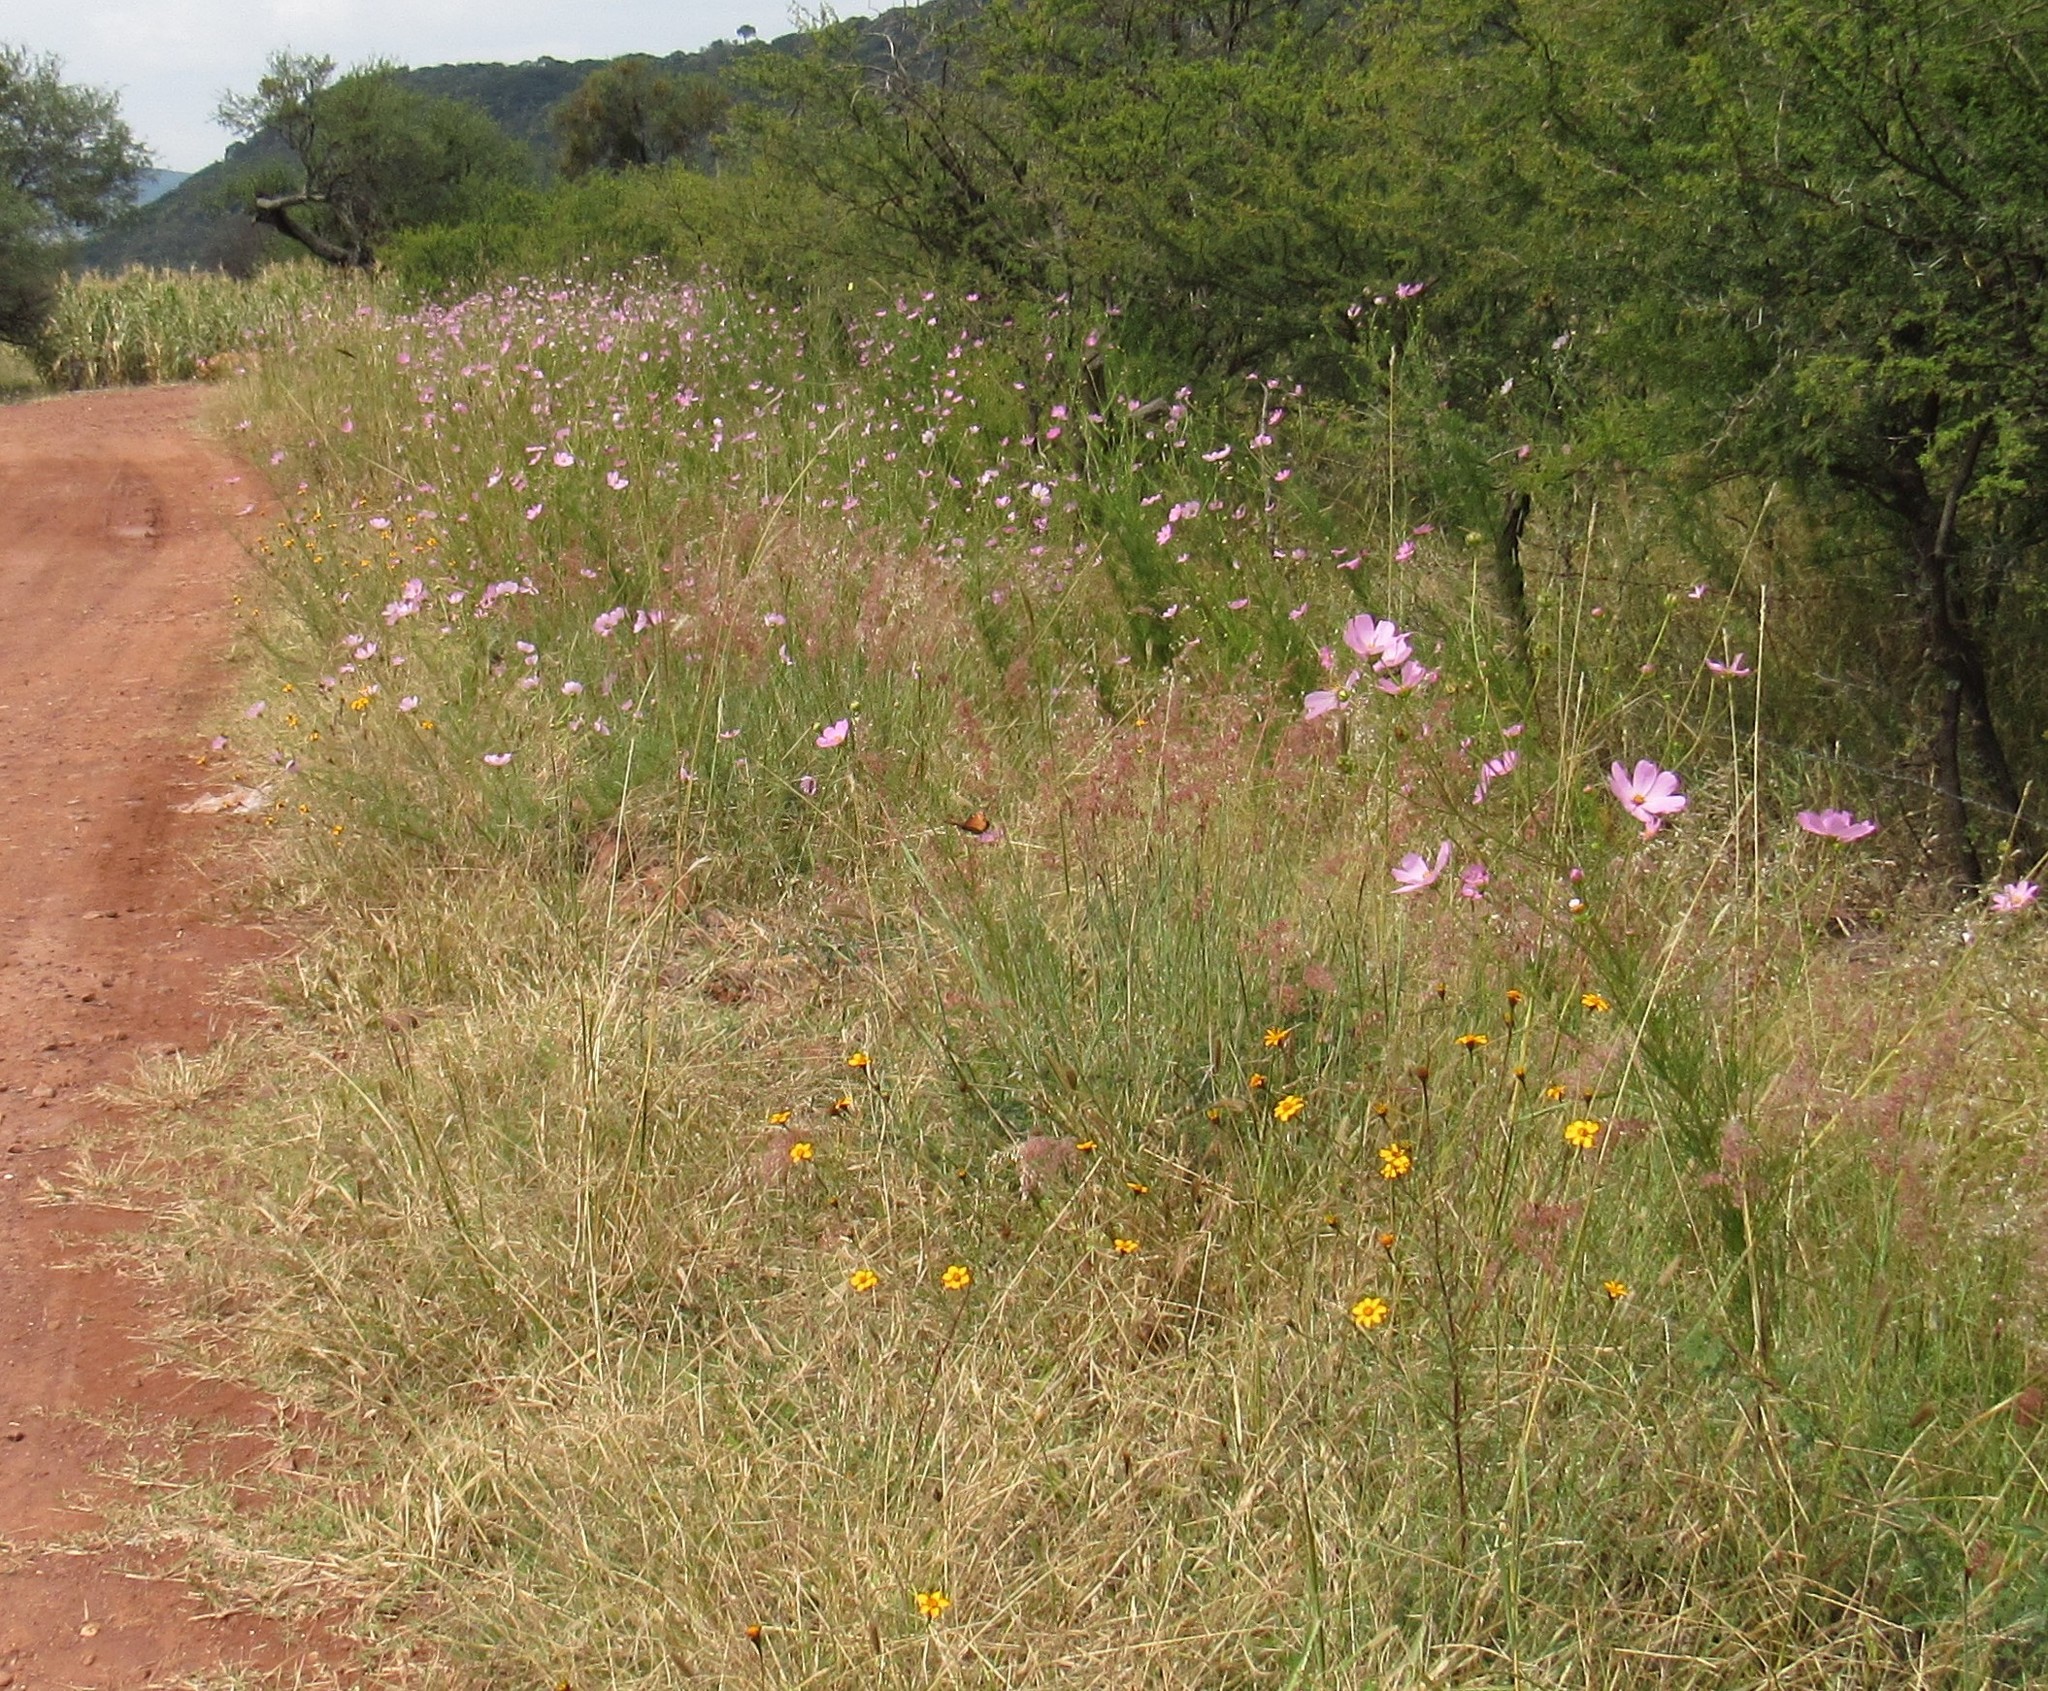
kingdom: Animalia
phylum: Arthropoda
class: Insecta
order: Lepidoptera
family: Nymphalidae
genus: Danaus
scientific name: Danaus gilippus
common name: Queen
